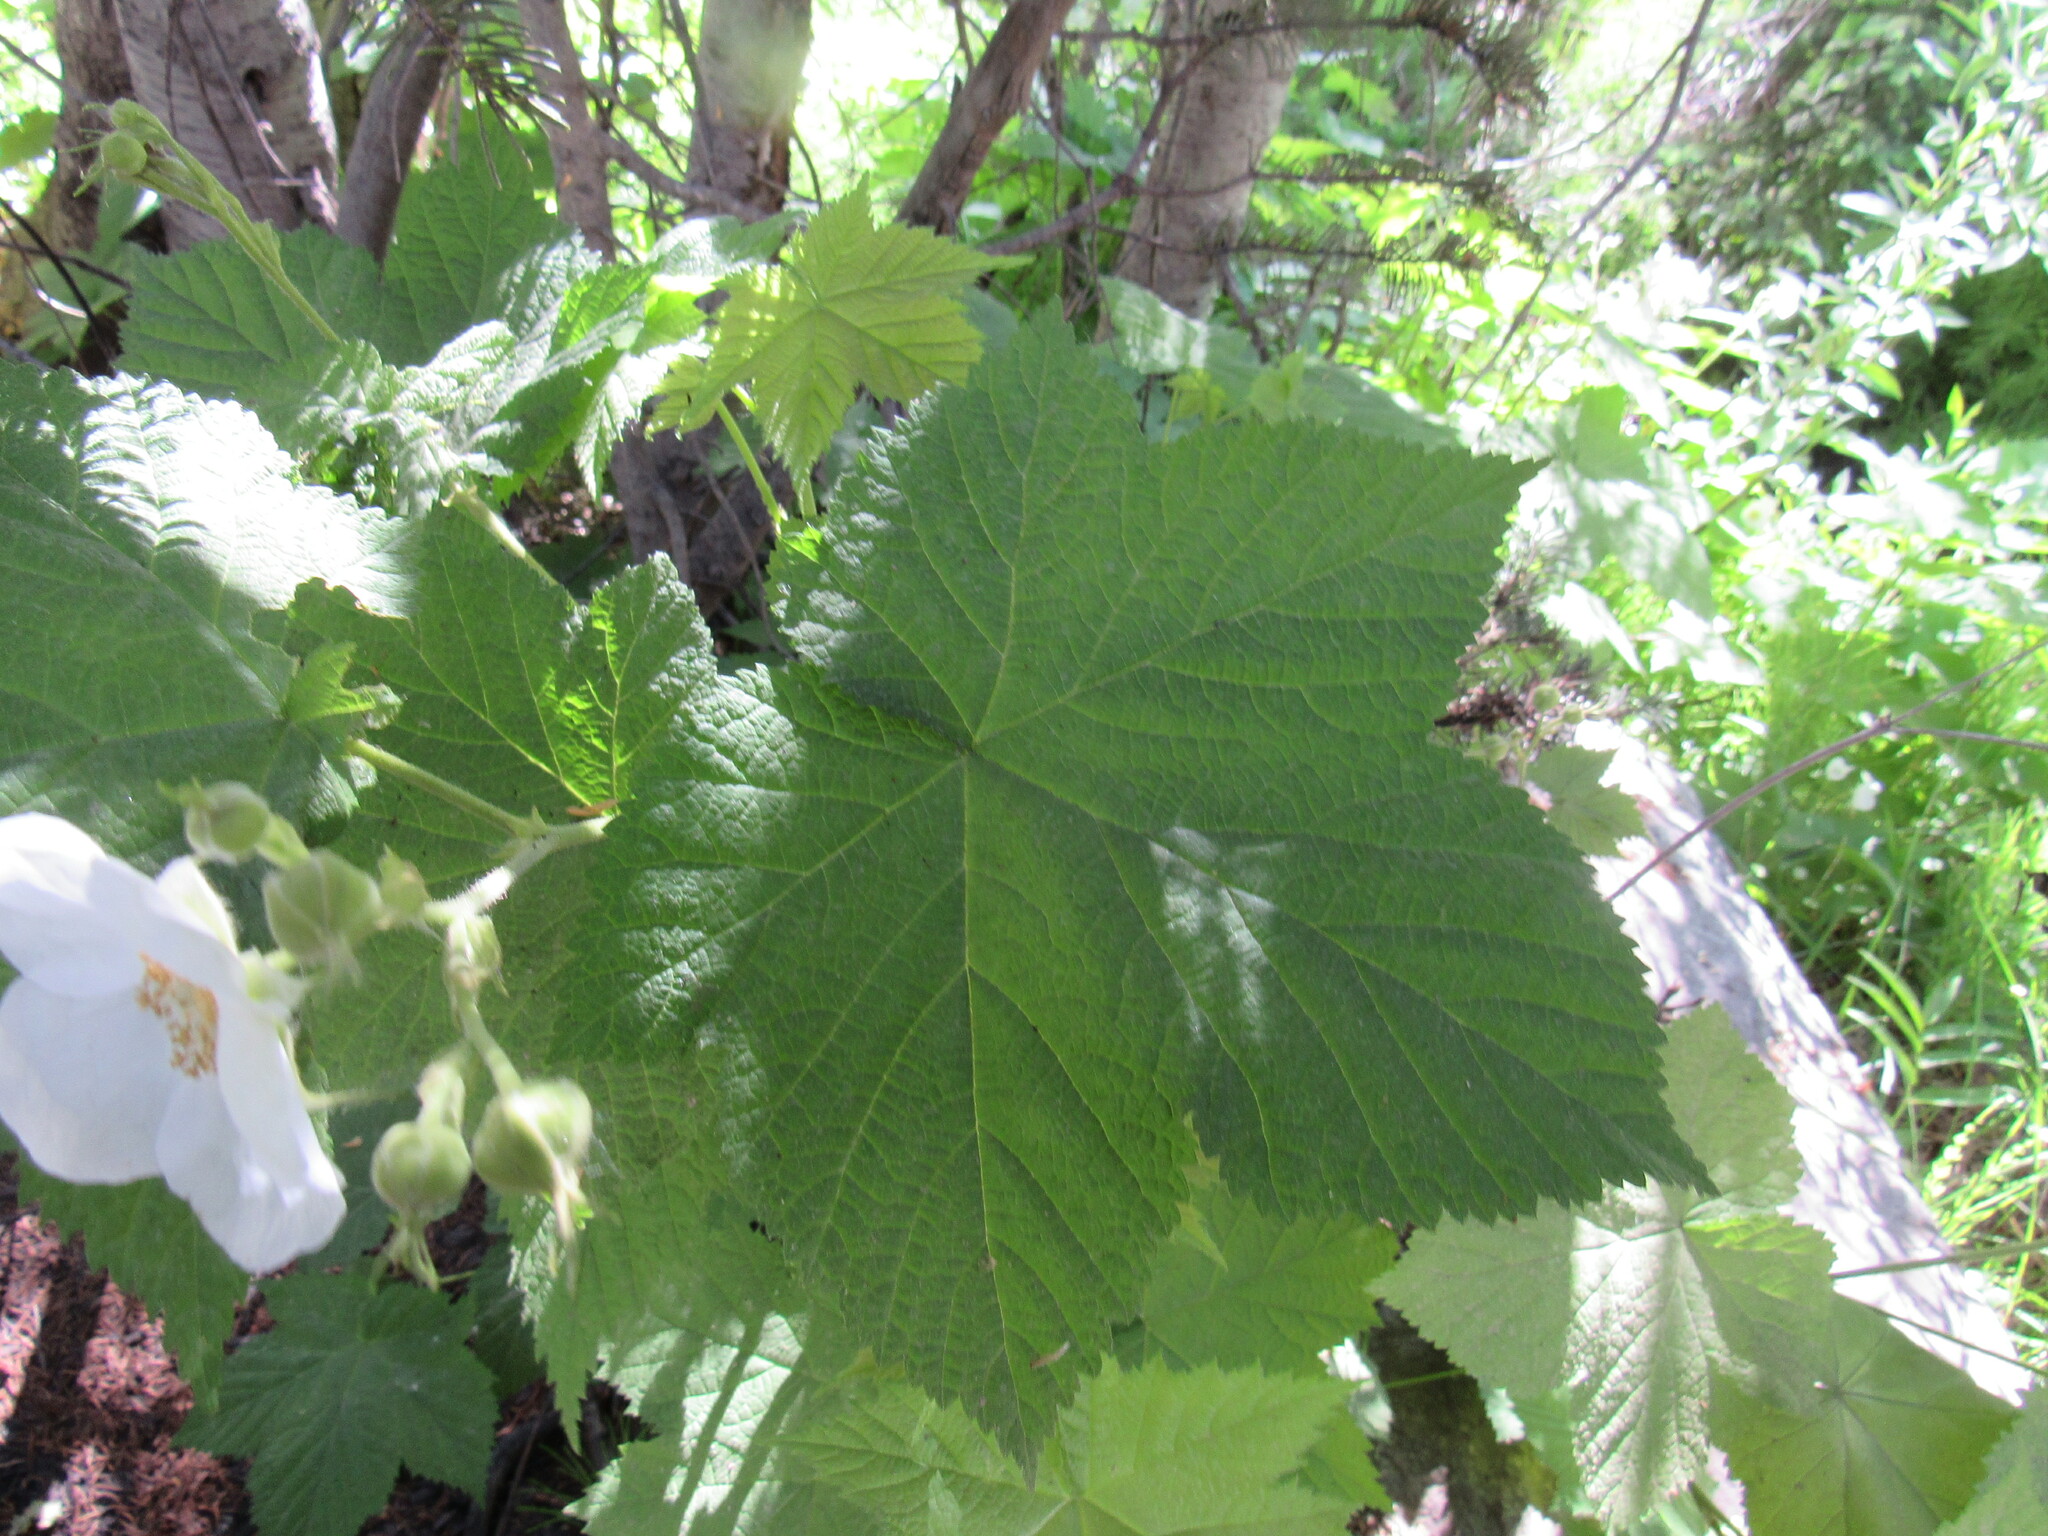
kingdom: Plantae
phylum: Tracheophyta
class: Magnoliopsida
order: Rosales
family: Rosaceae
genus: Rubus
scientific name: Rubus parviflorus
